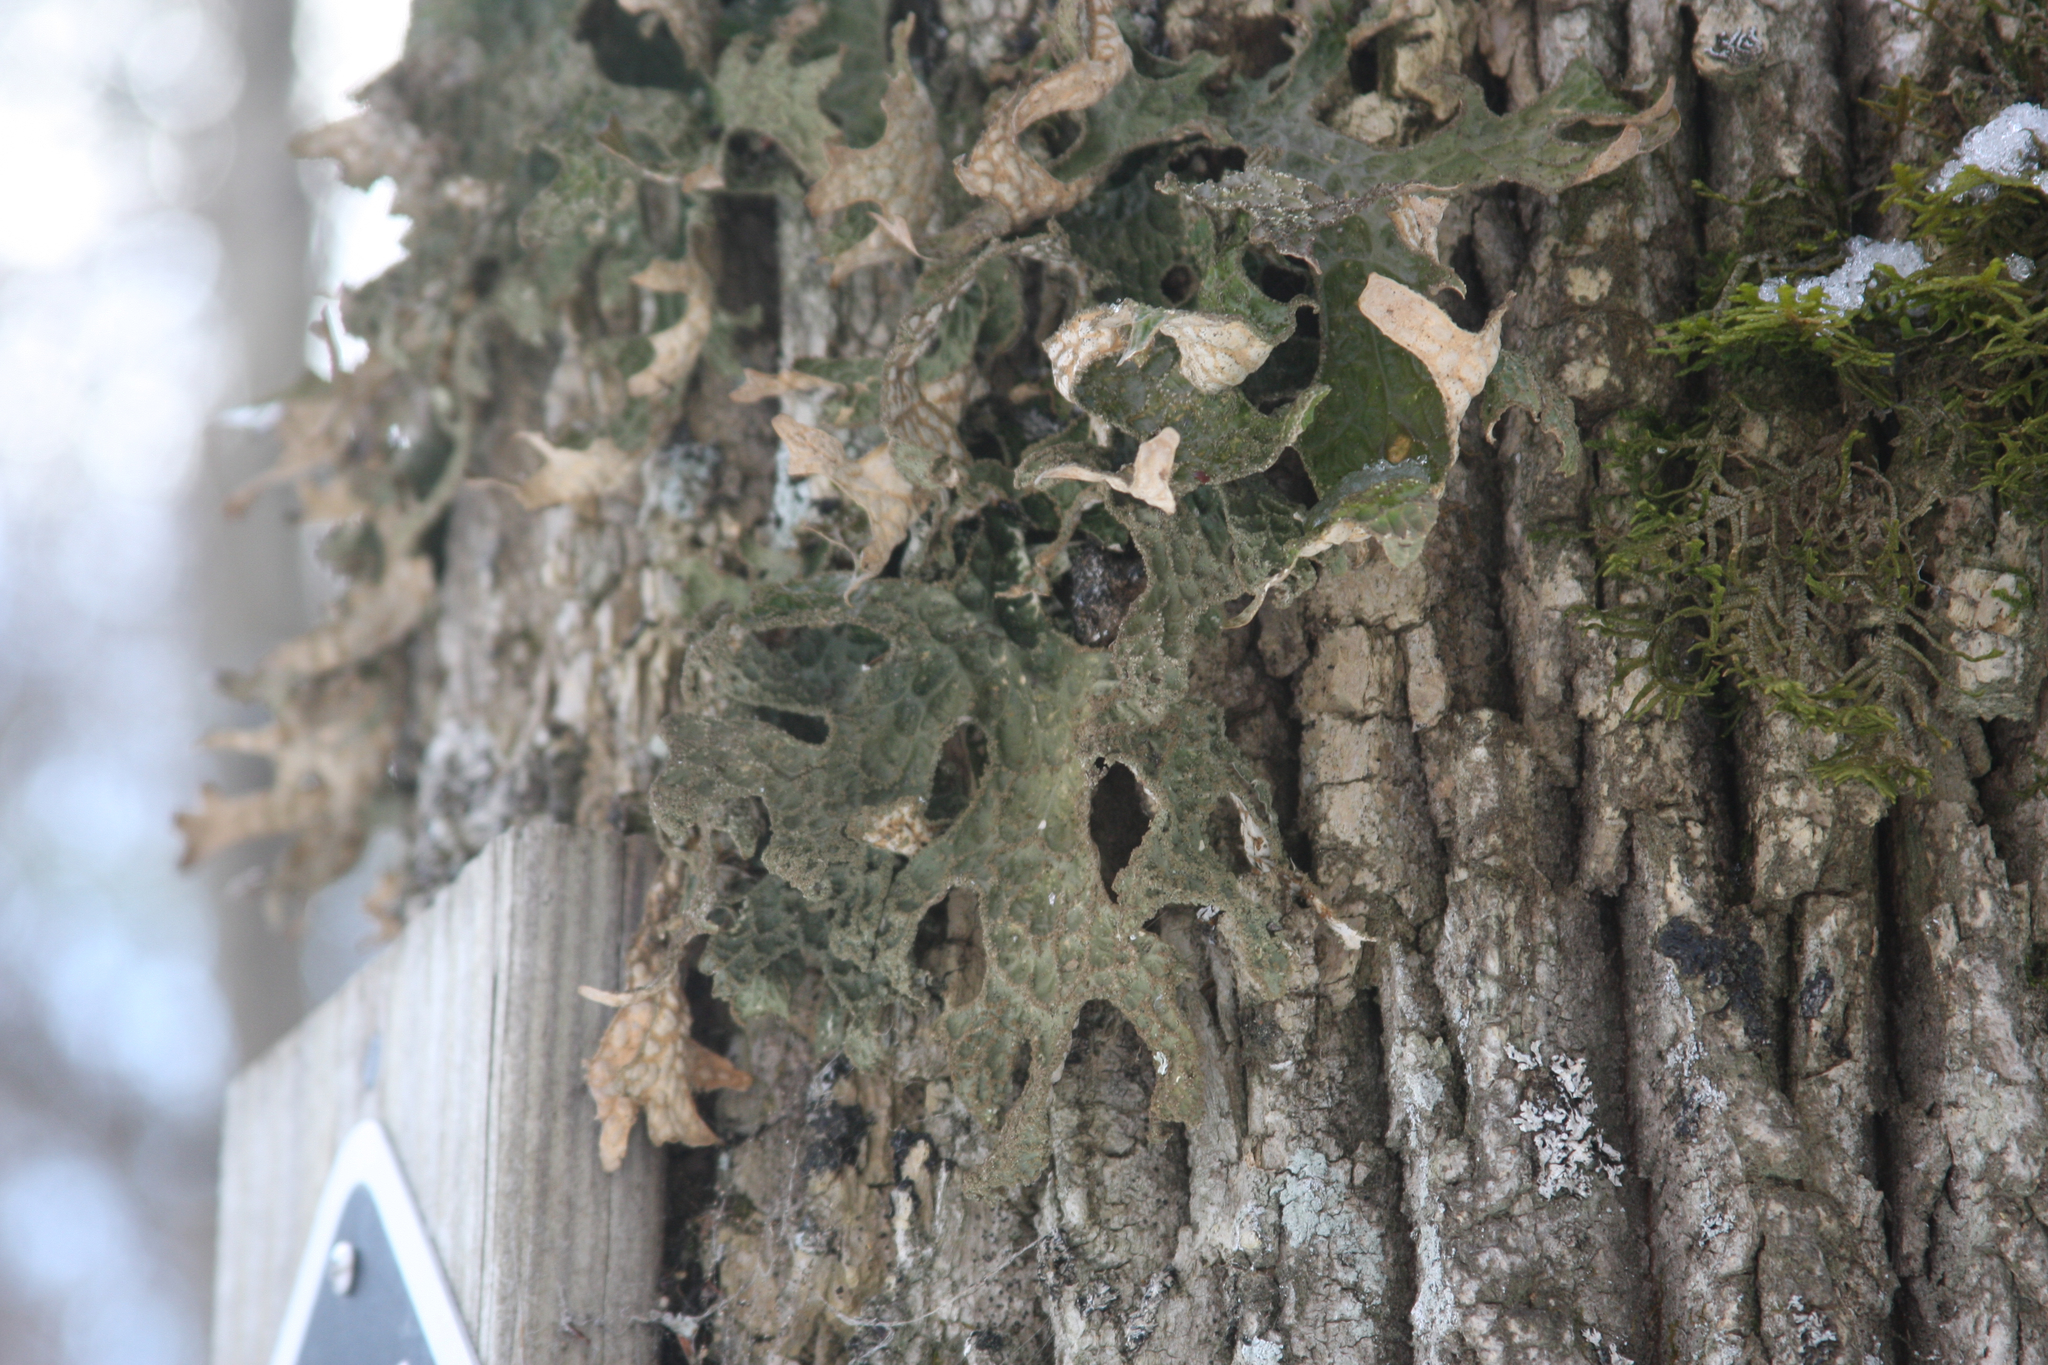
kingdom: Fungi
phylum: Ascomycota
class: Lecanoromycetes
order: Peltigerales
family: Lobariaceae
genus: Lobaria
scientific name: Lobaria pulmonaria
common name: Lungwort
